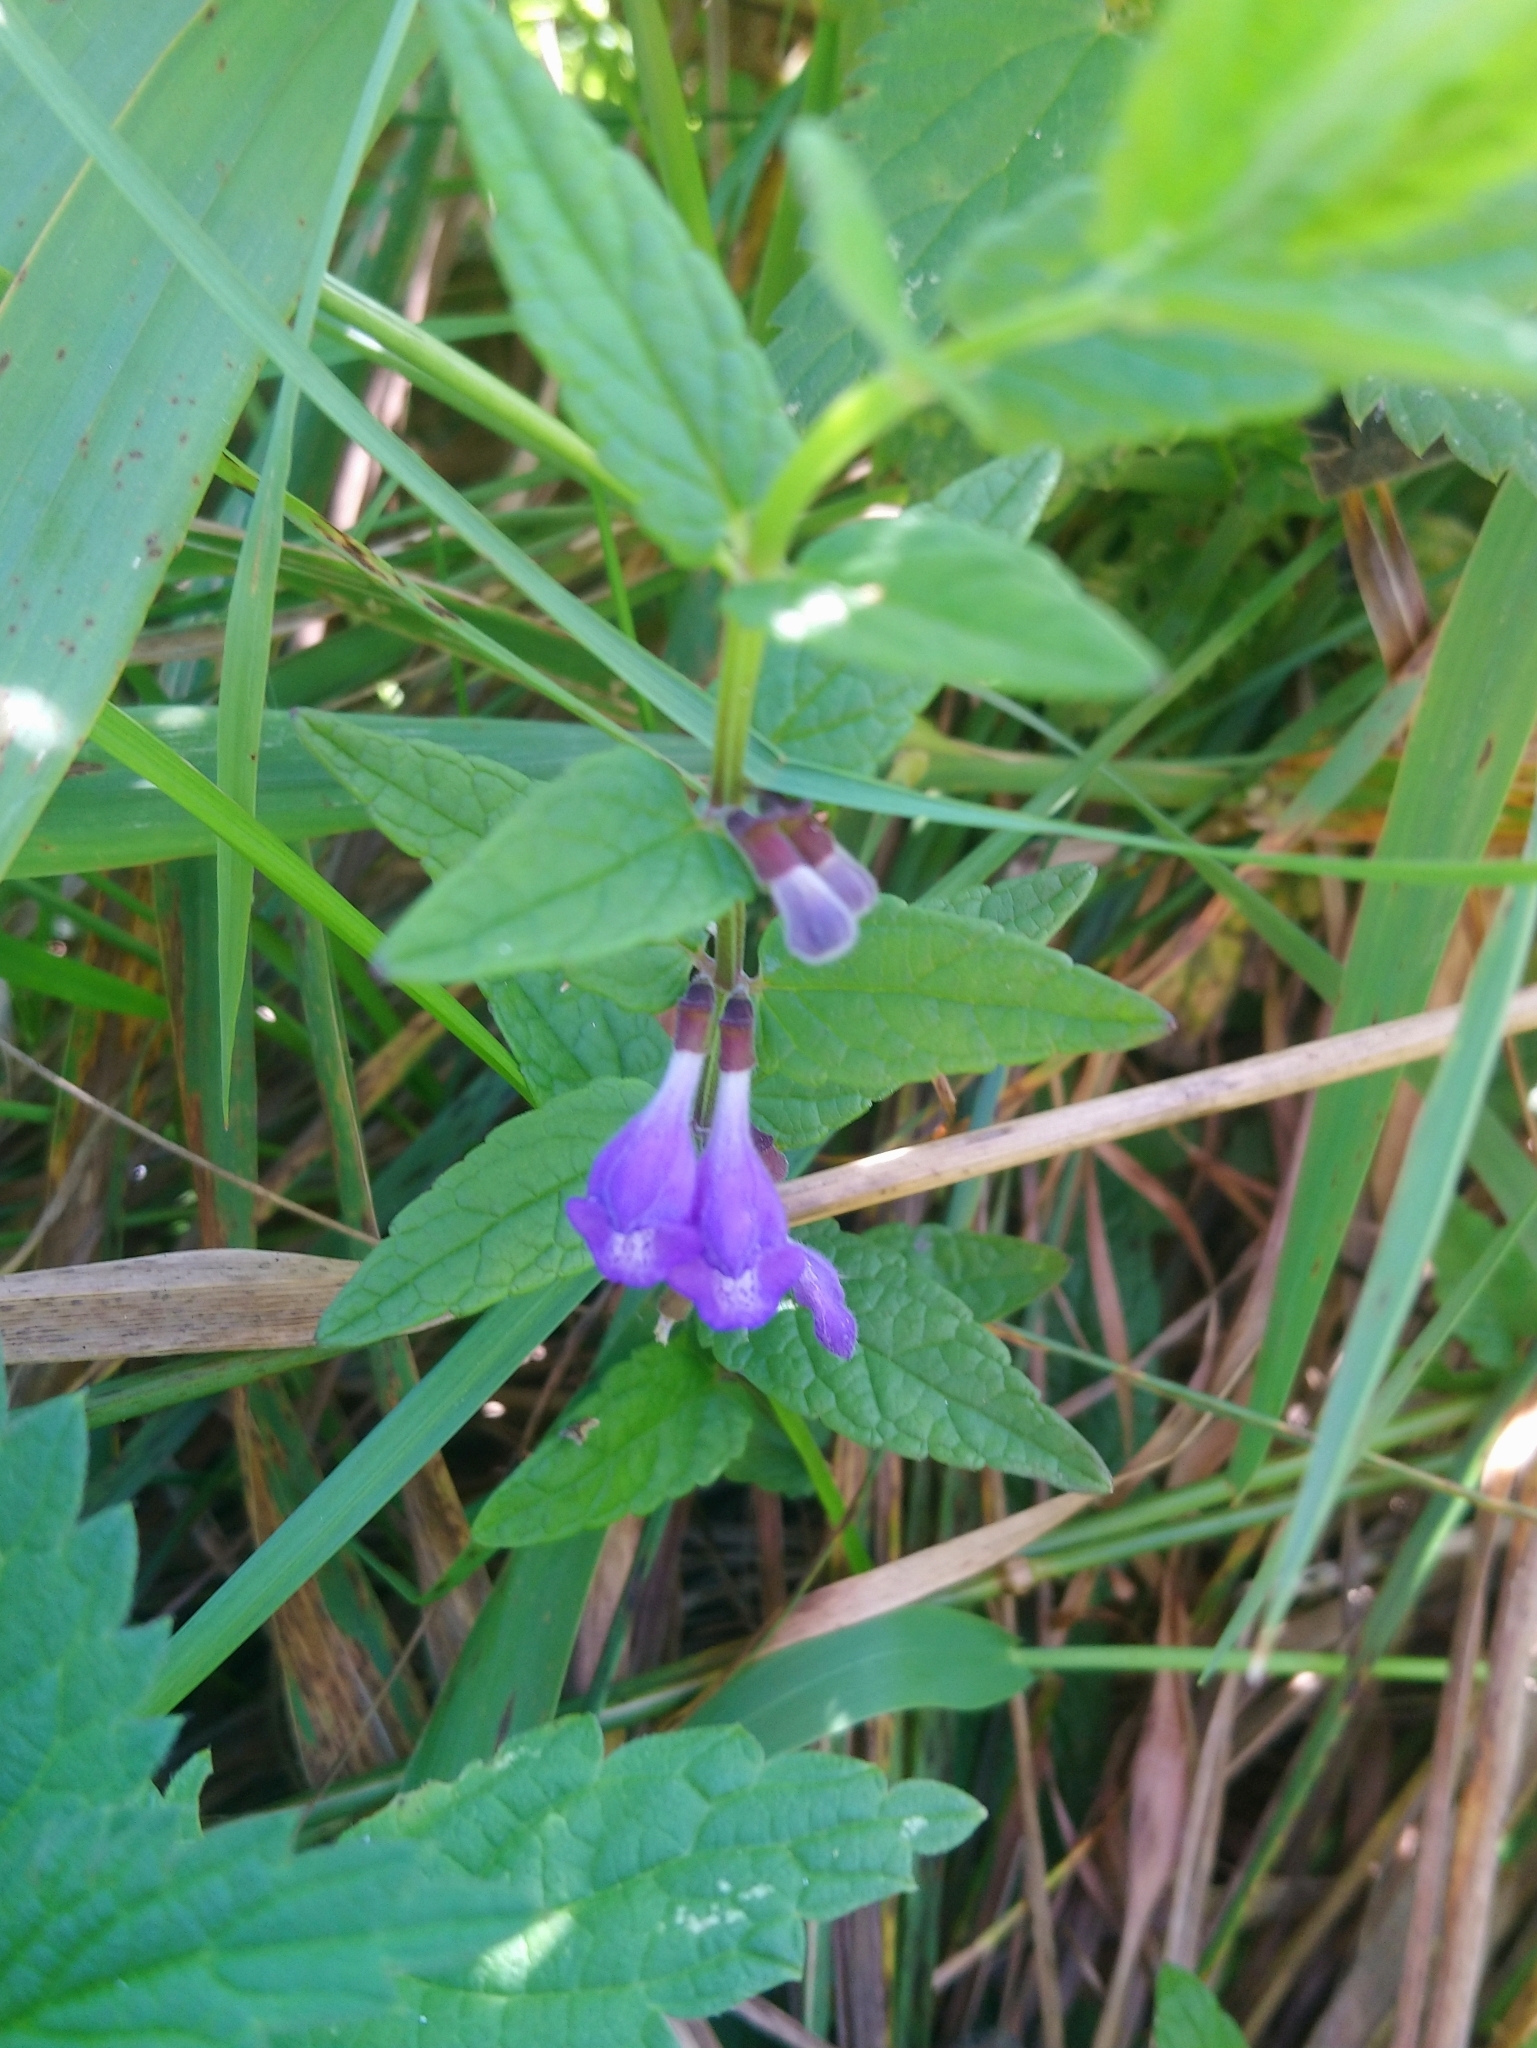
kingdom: Plantae
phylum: Tracheophyta
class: Magnoliopsida
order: Lamiales
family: Lamiaceae
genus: Scutellaria
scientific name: Scutellaria galericulata
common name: Skullcap
